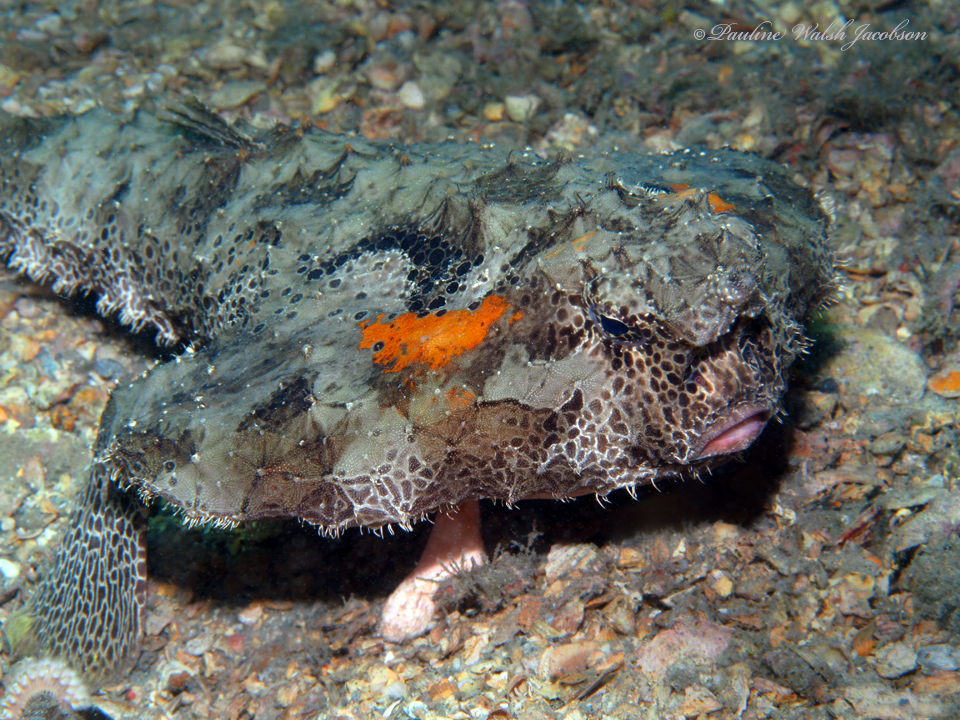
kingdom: Animalia
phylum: Chordata
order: Lophiiformes
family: Ogcocephalidae
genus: Ogcocephalus
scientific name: Ogcocephalus cubifrons
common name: Polka-dot batfish
